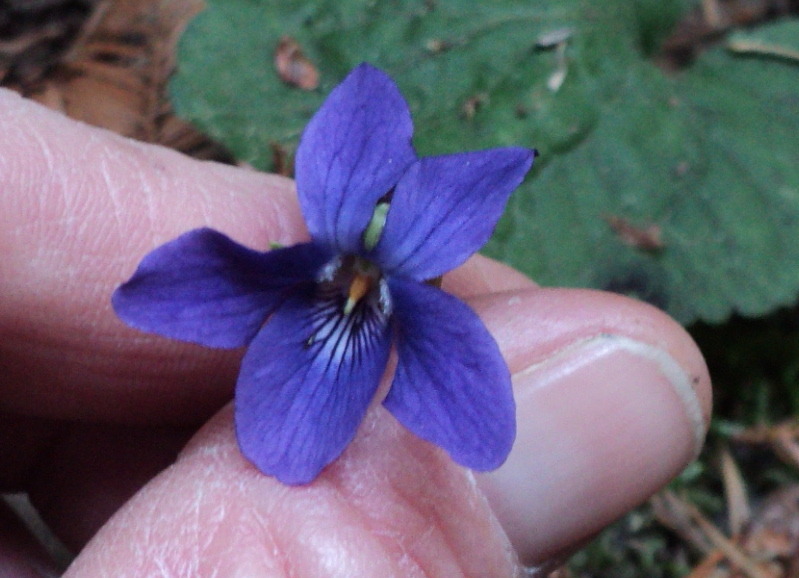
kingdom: Plantae
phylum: Tracheophyta
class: Magnoliopsida
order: Malpighiales
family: Violaceae
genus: Viola
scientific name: Viola odorata
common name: Sweet violet
